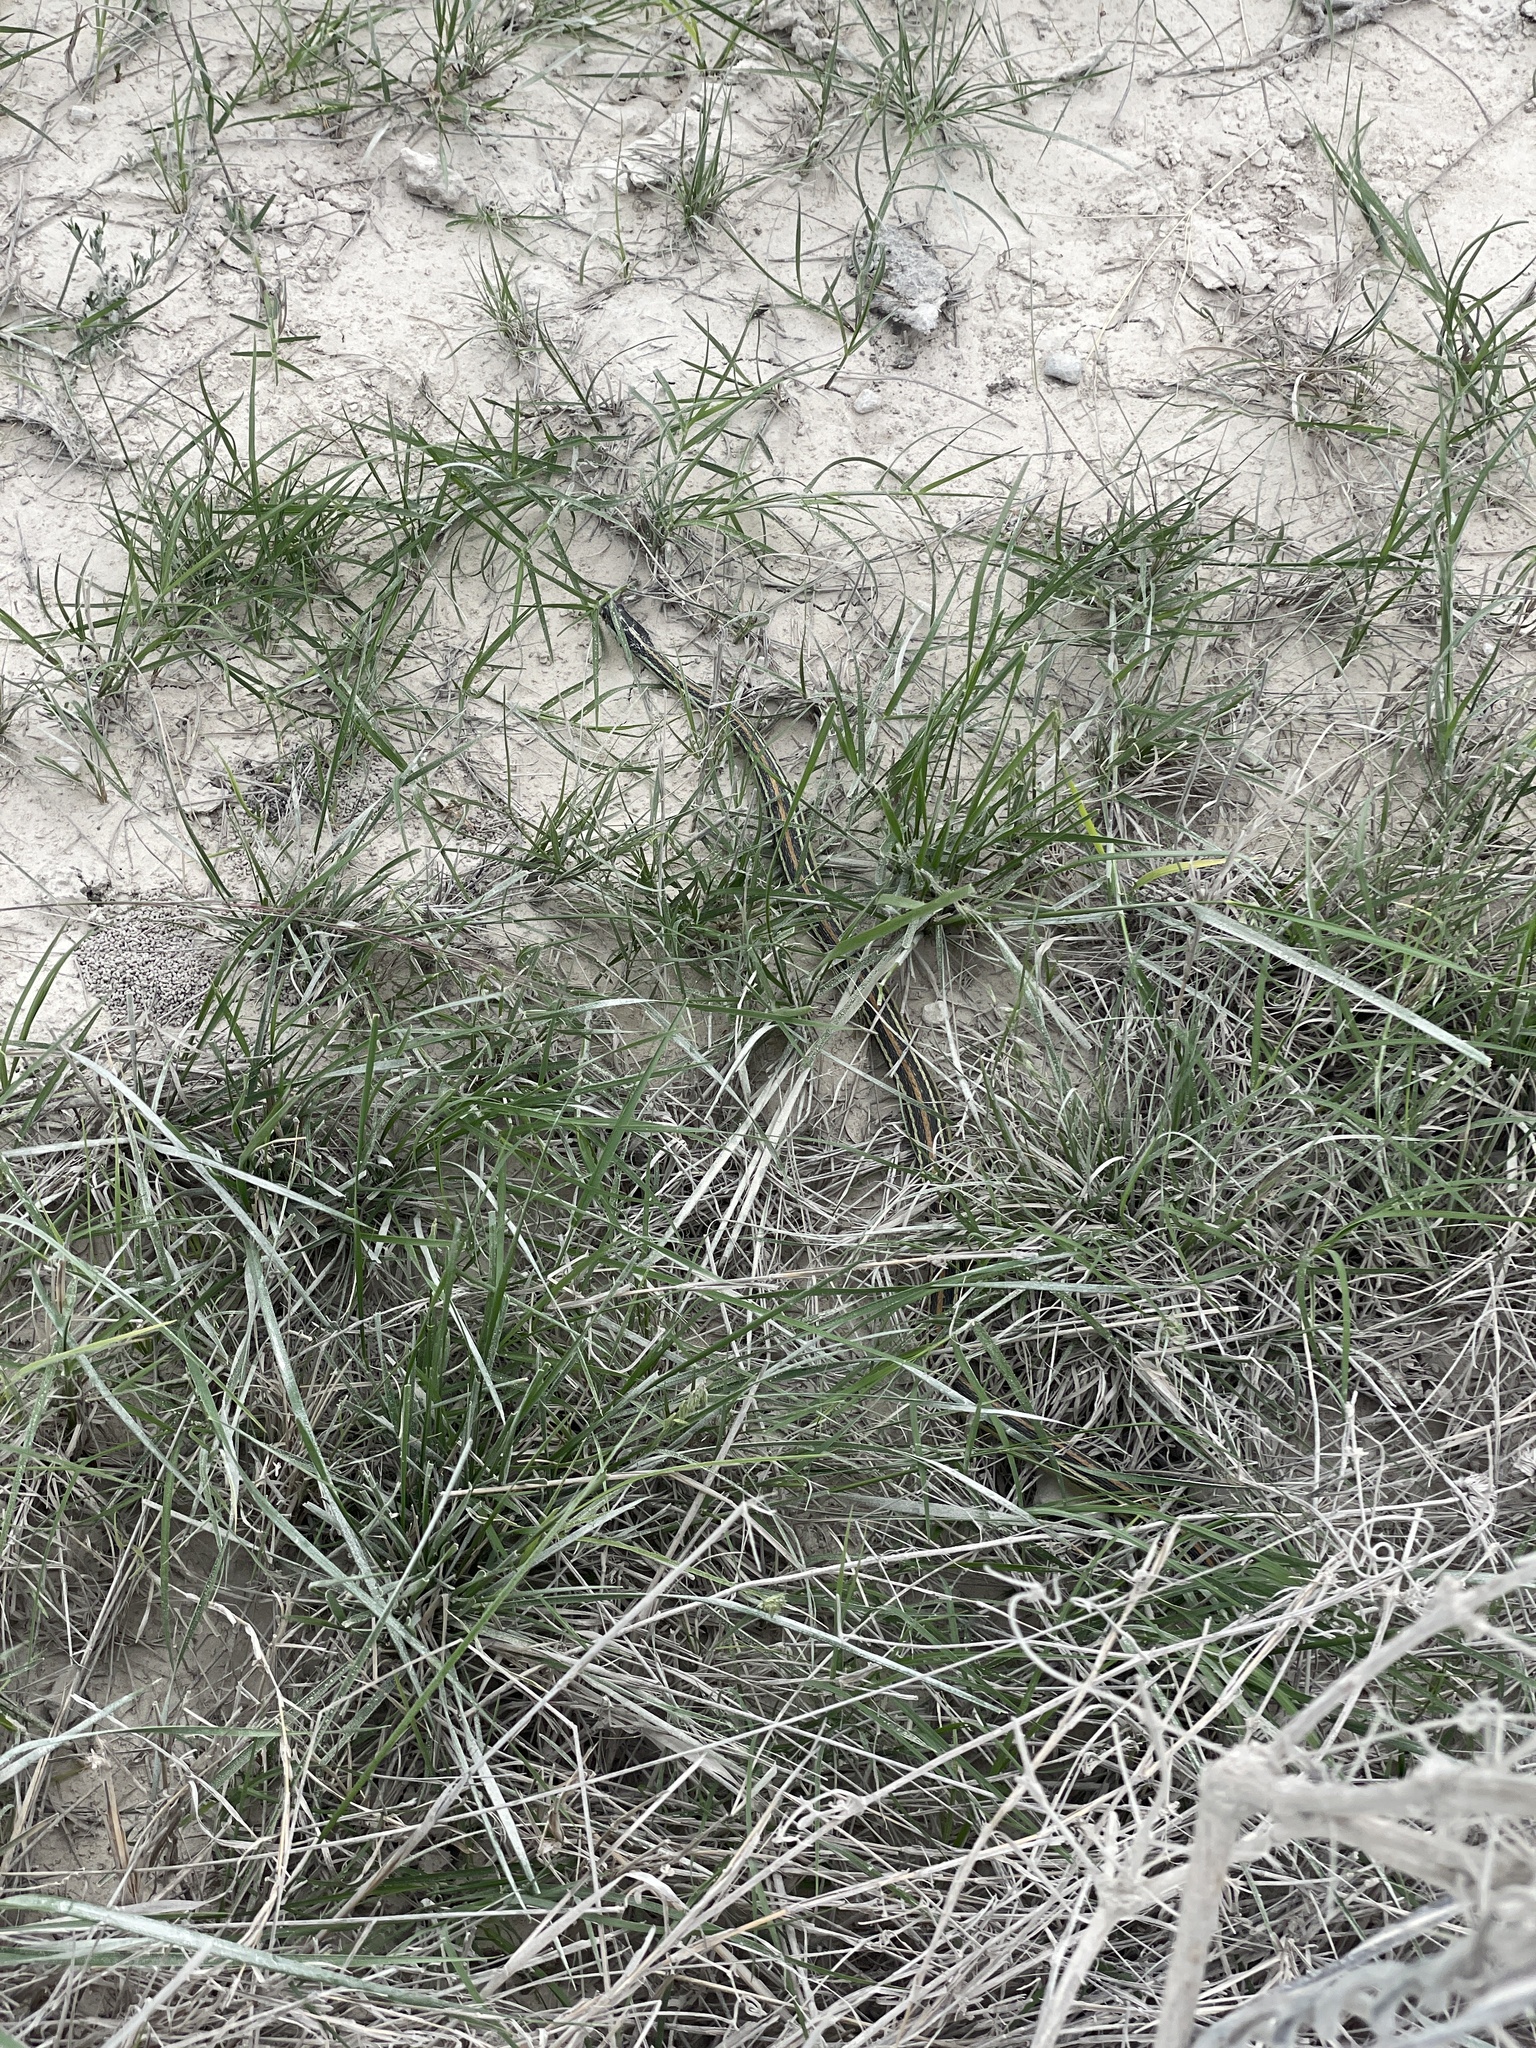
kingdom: Animalia
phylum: Chordata
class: Squamata
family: Colubridae
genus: Thamnophis
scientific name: Thamnophis proximus
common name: Western ribbon snake
